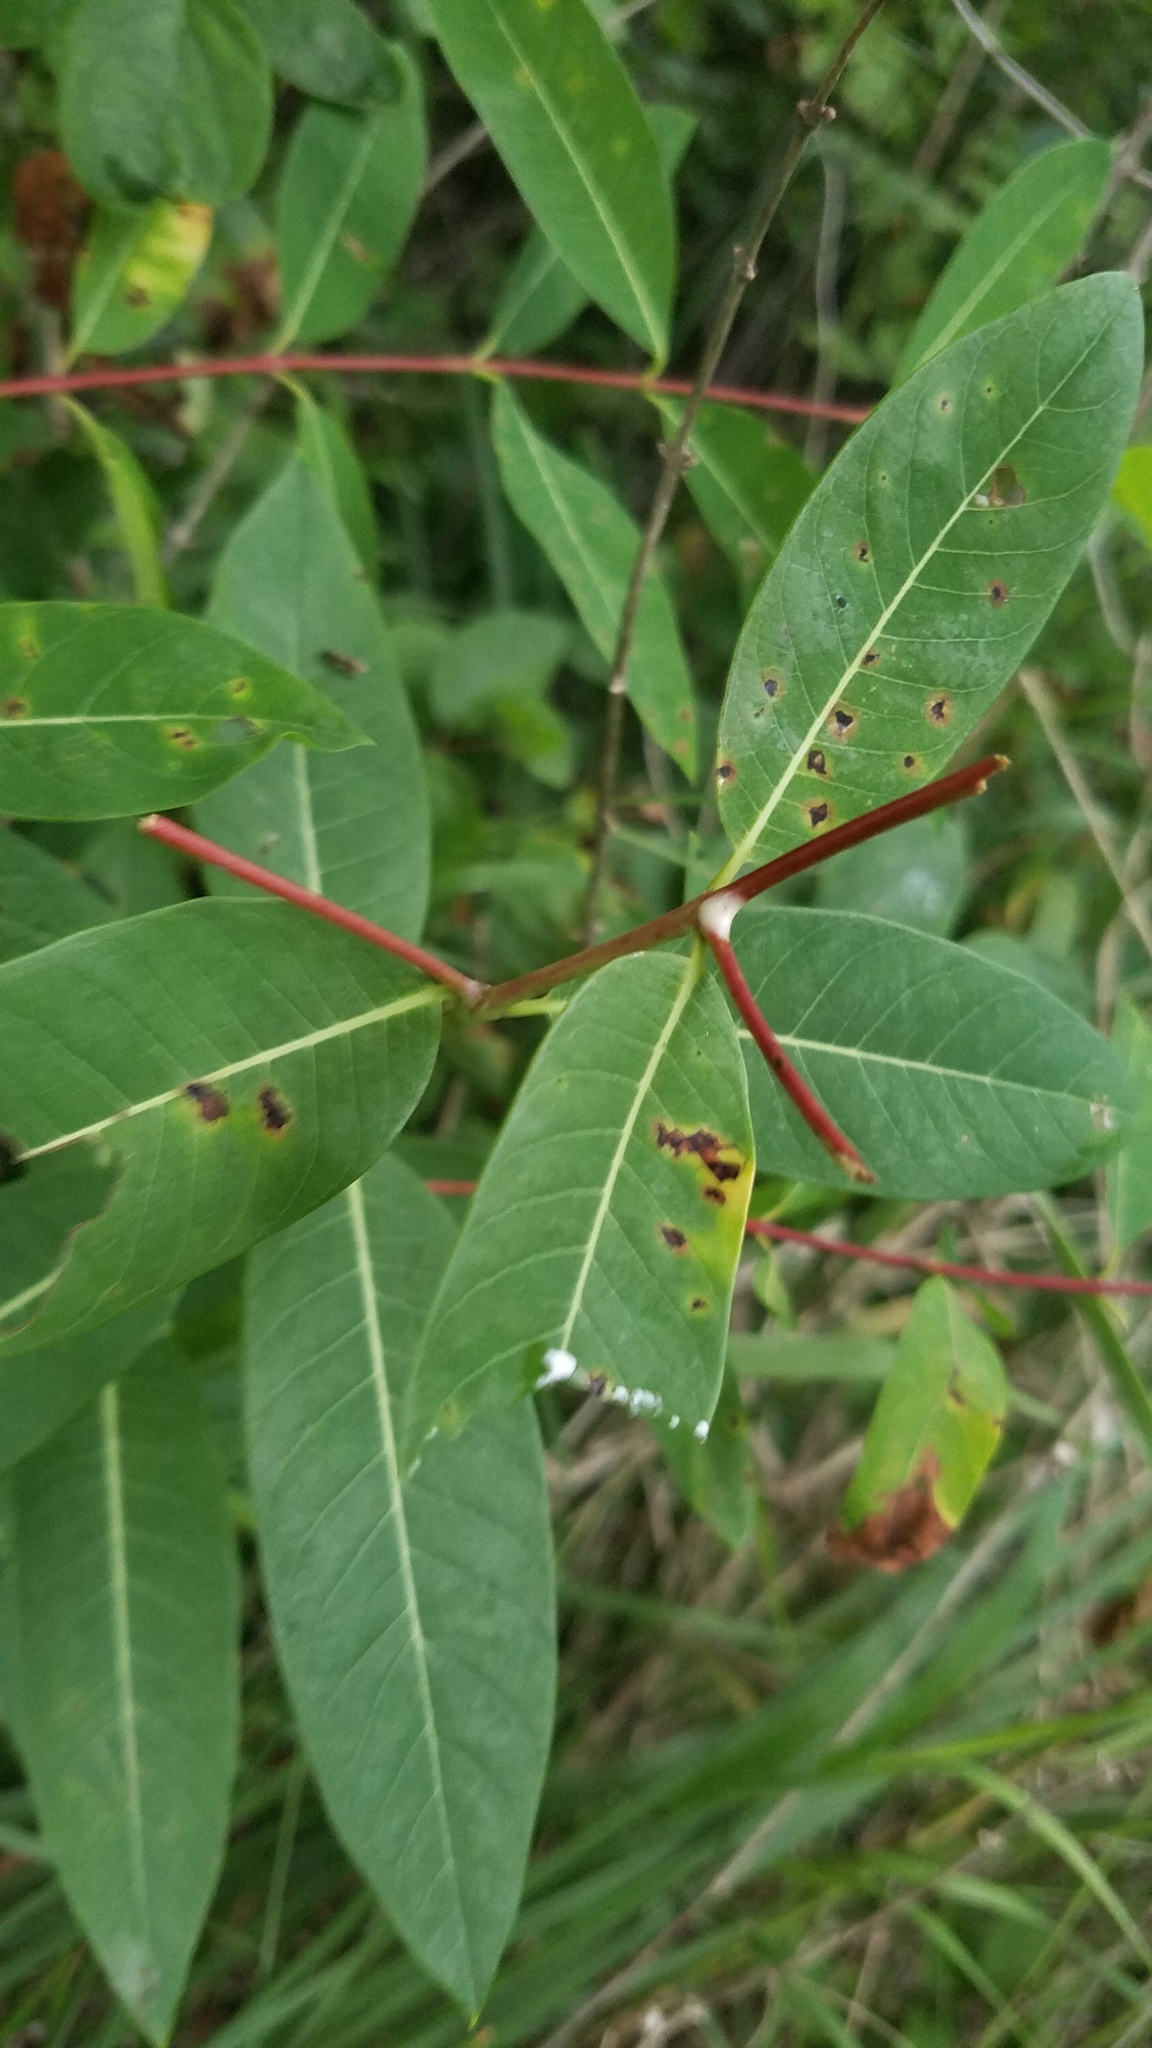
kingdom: Plantae
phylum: Tracheophyta
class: Magnoliopsida
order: Gentianales
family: Apocynaceae
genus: Apocynum
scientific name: Apocynum cannabinum
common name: Hemp dogbane
